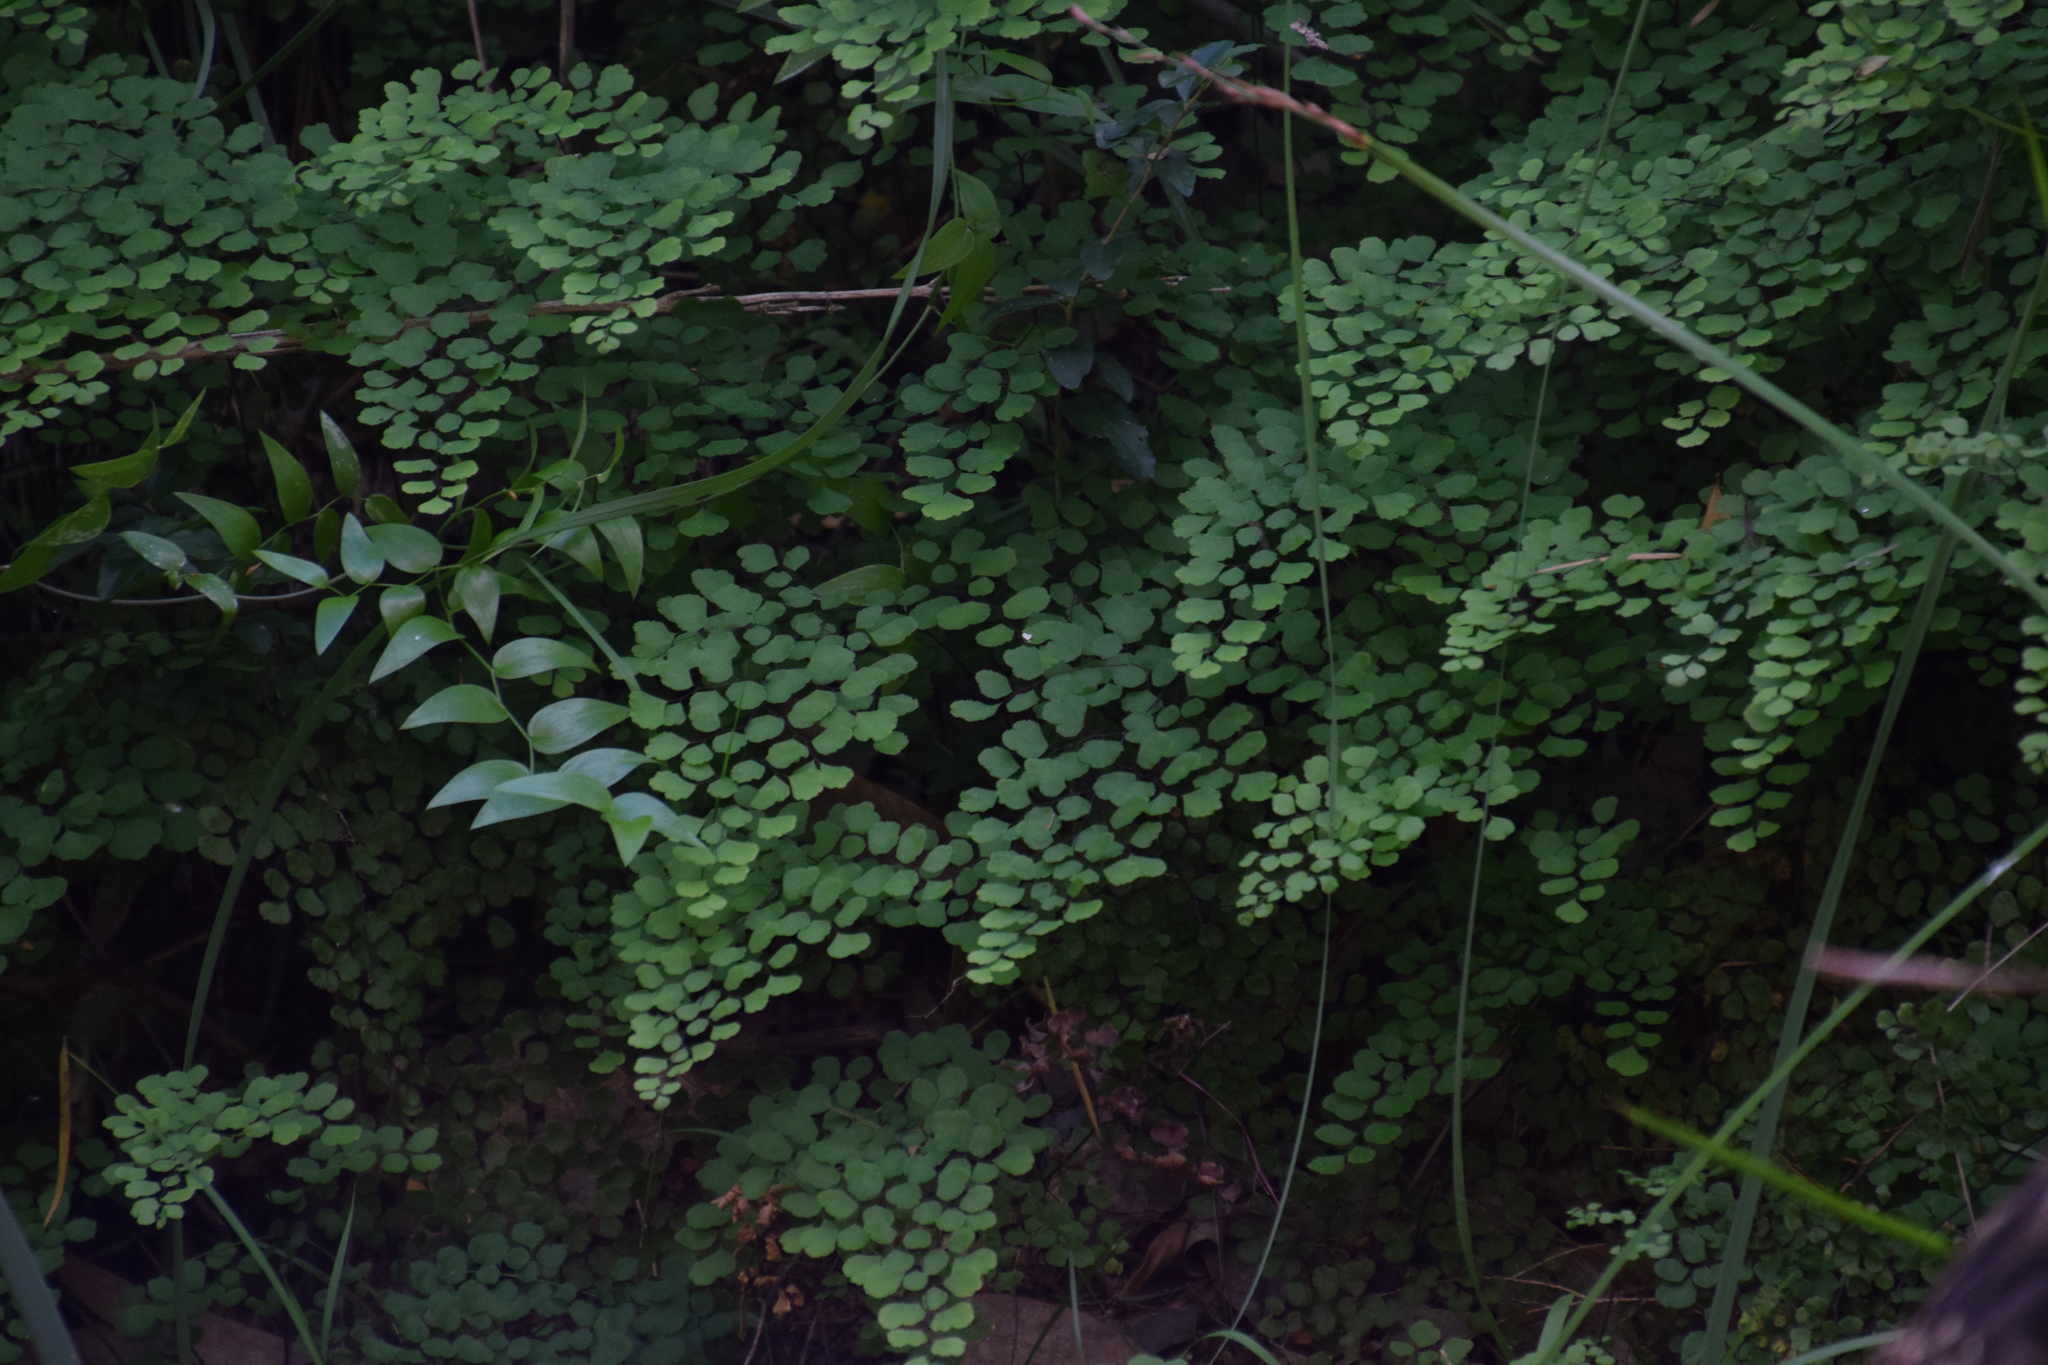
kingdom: Plantae
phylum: Tracheophyta
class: Polypodiopsida
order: Polypodiales
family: Pteridaceae
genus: Adiantum
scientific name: Adiantum aethiopicum
